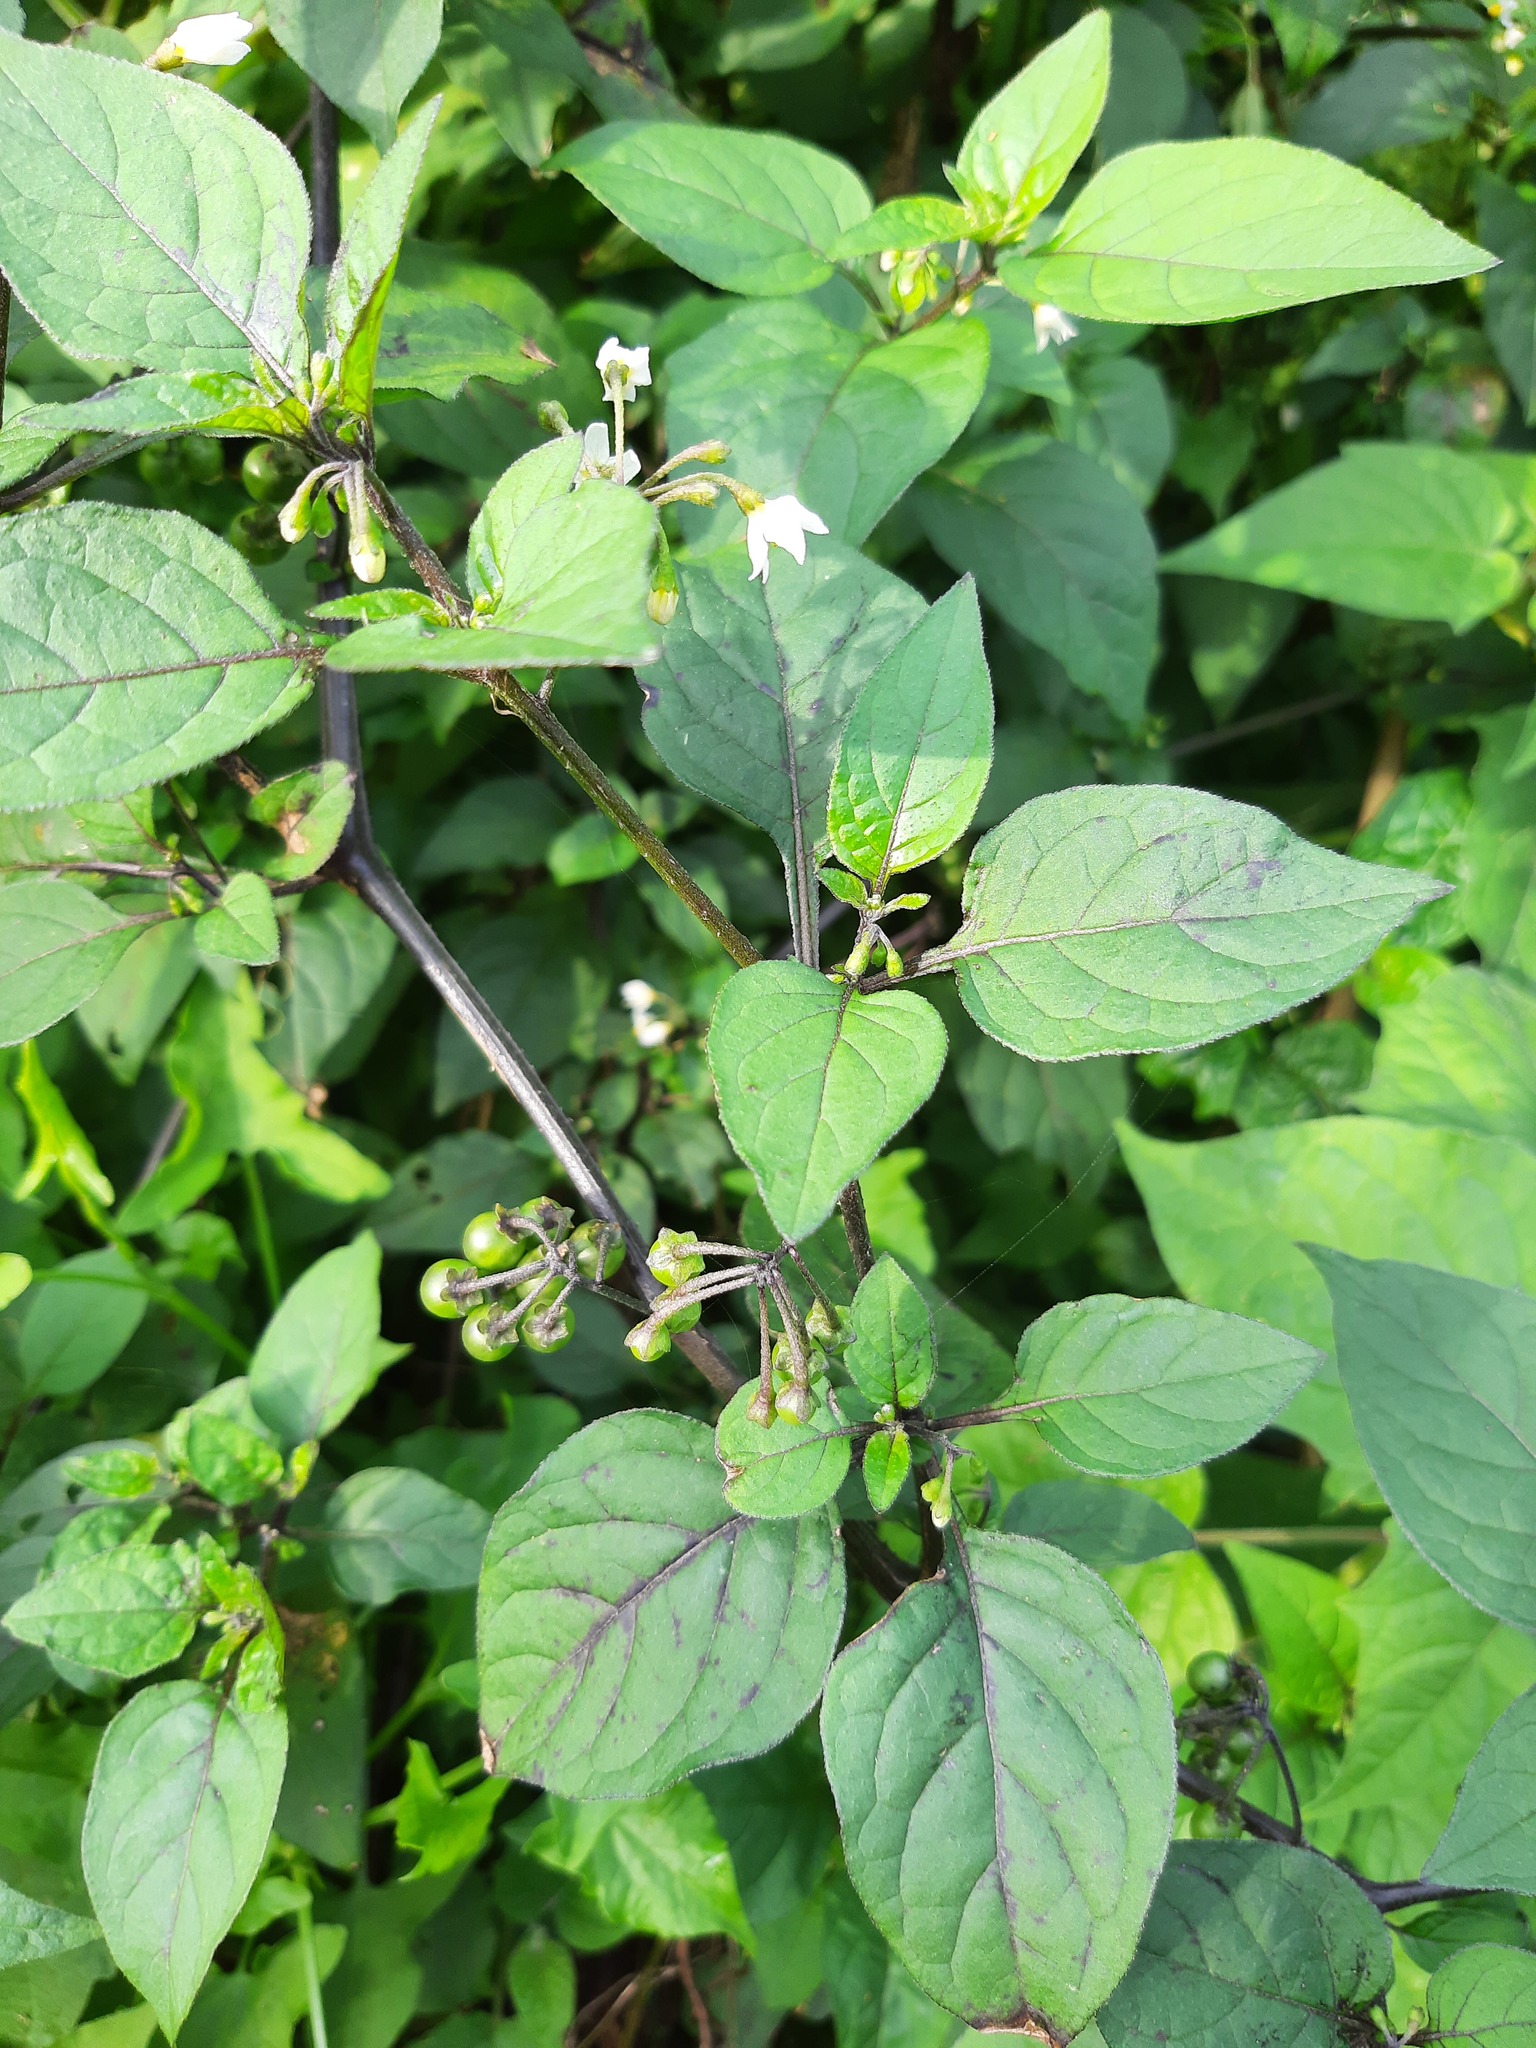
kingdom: Plantae
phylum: Tracheophyta
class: Magnoliopsida
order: Solanales
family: Solanaceae
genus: Solanum
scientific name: Solanum nigrum
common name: Black nightshade
